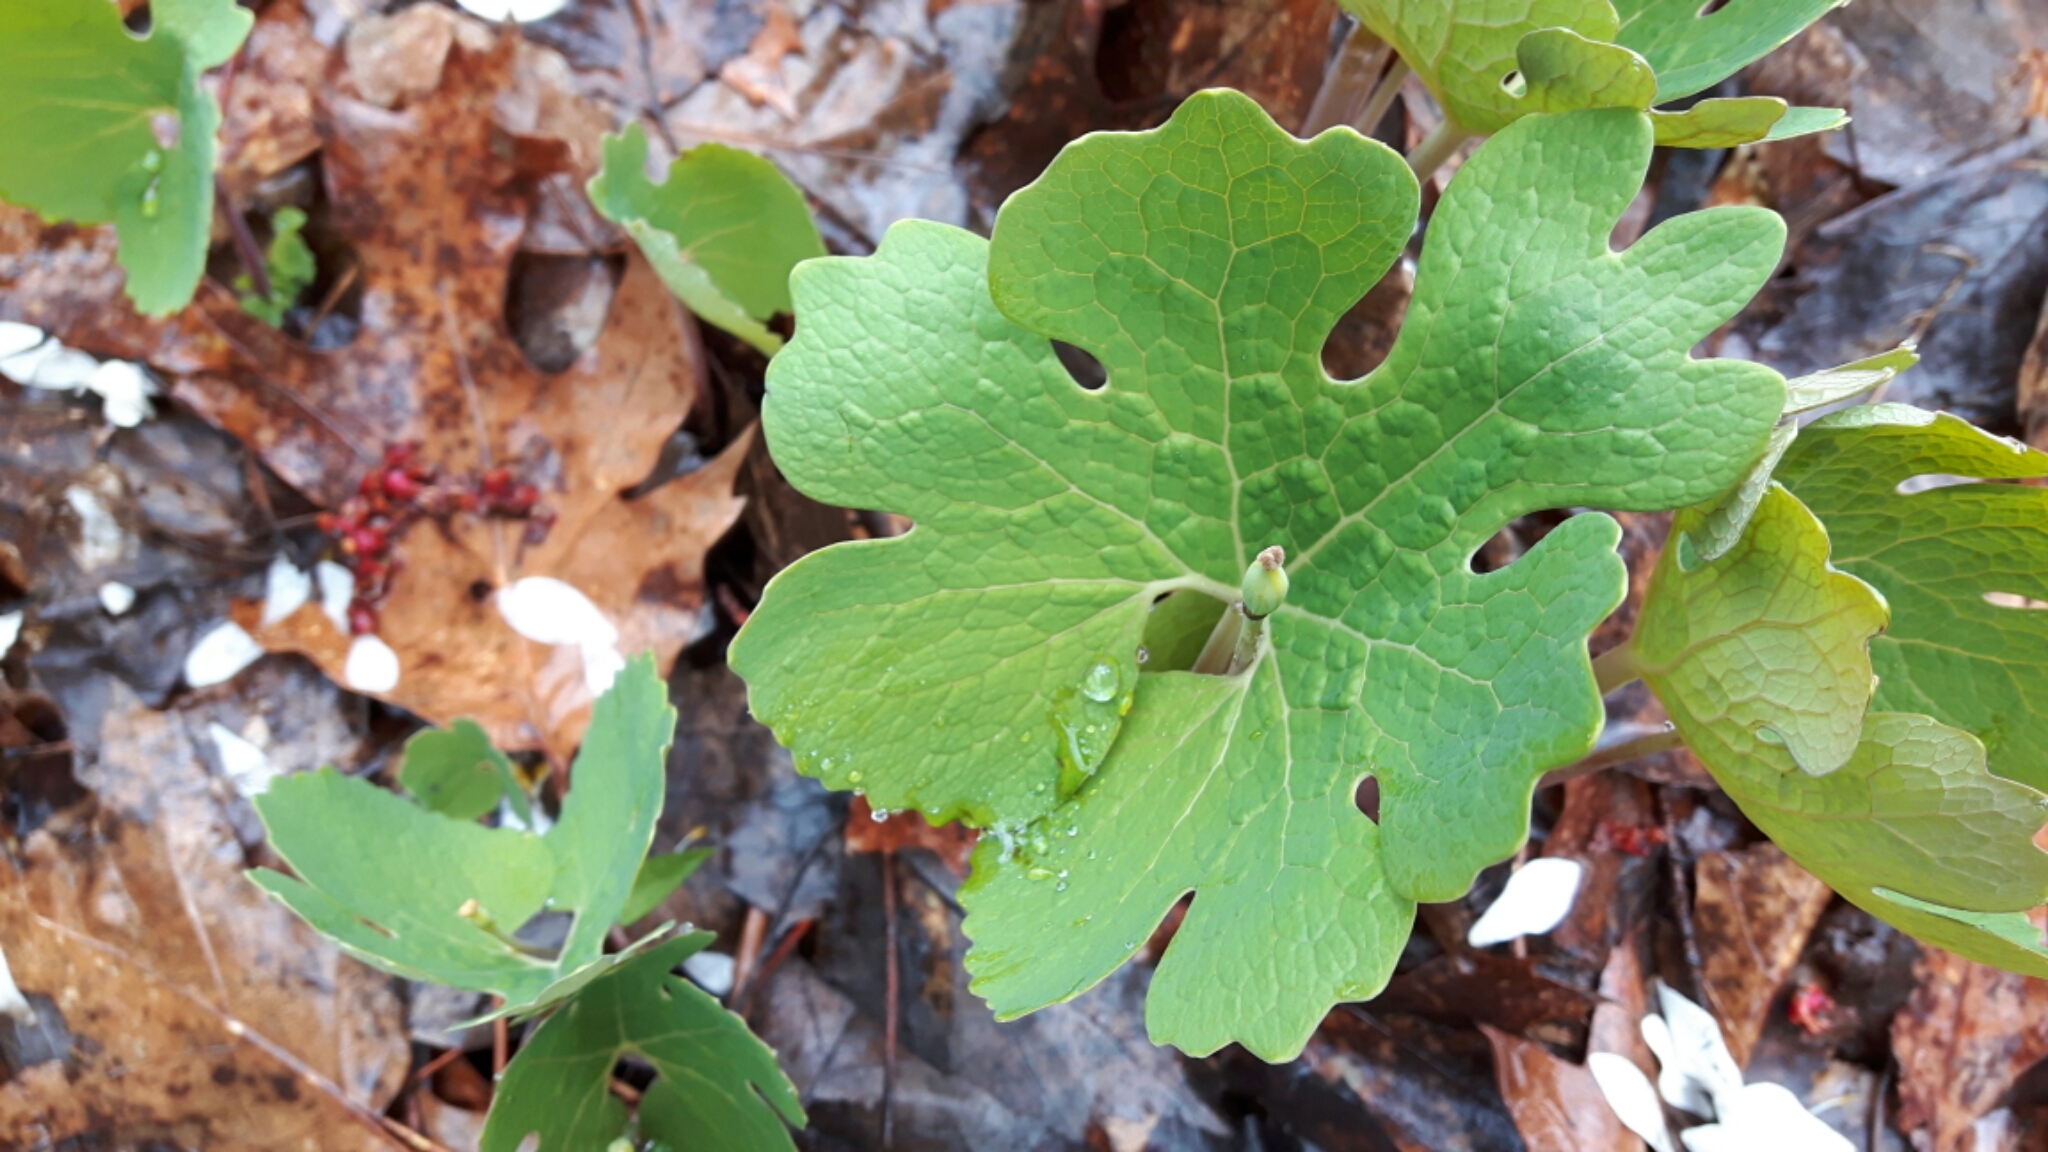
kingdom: Plantae
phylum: Tracheophyta
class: Magnoliopsida
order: Ranunculales
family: Papaveraceae
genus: Sanguinaria
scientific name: Sanguinaria canadensis
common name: Bloodroot
